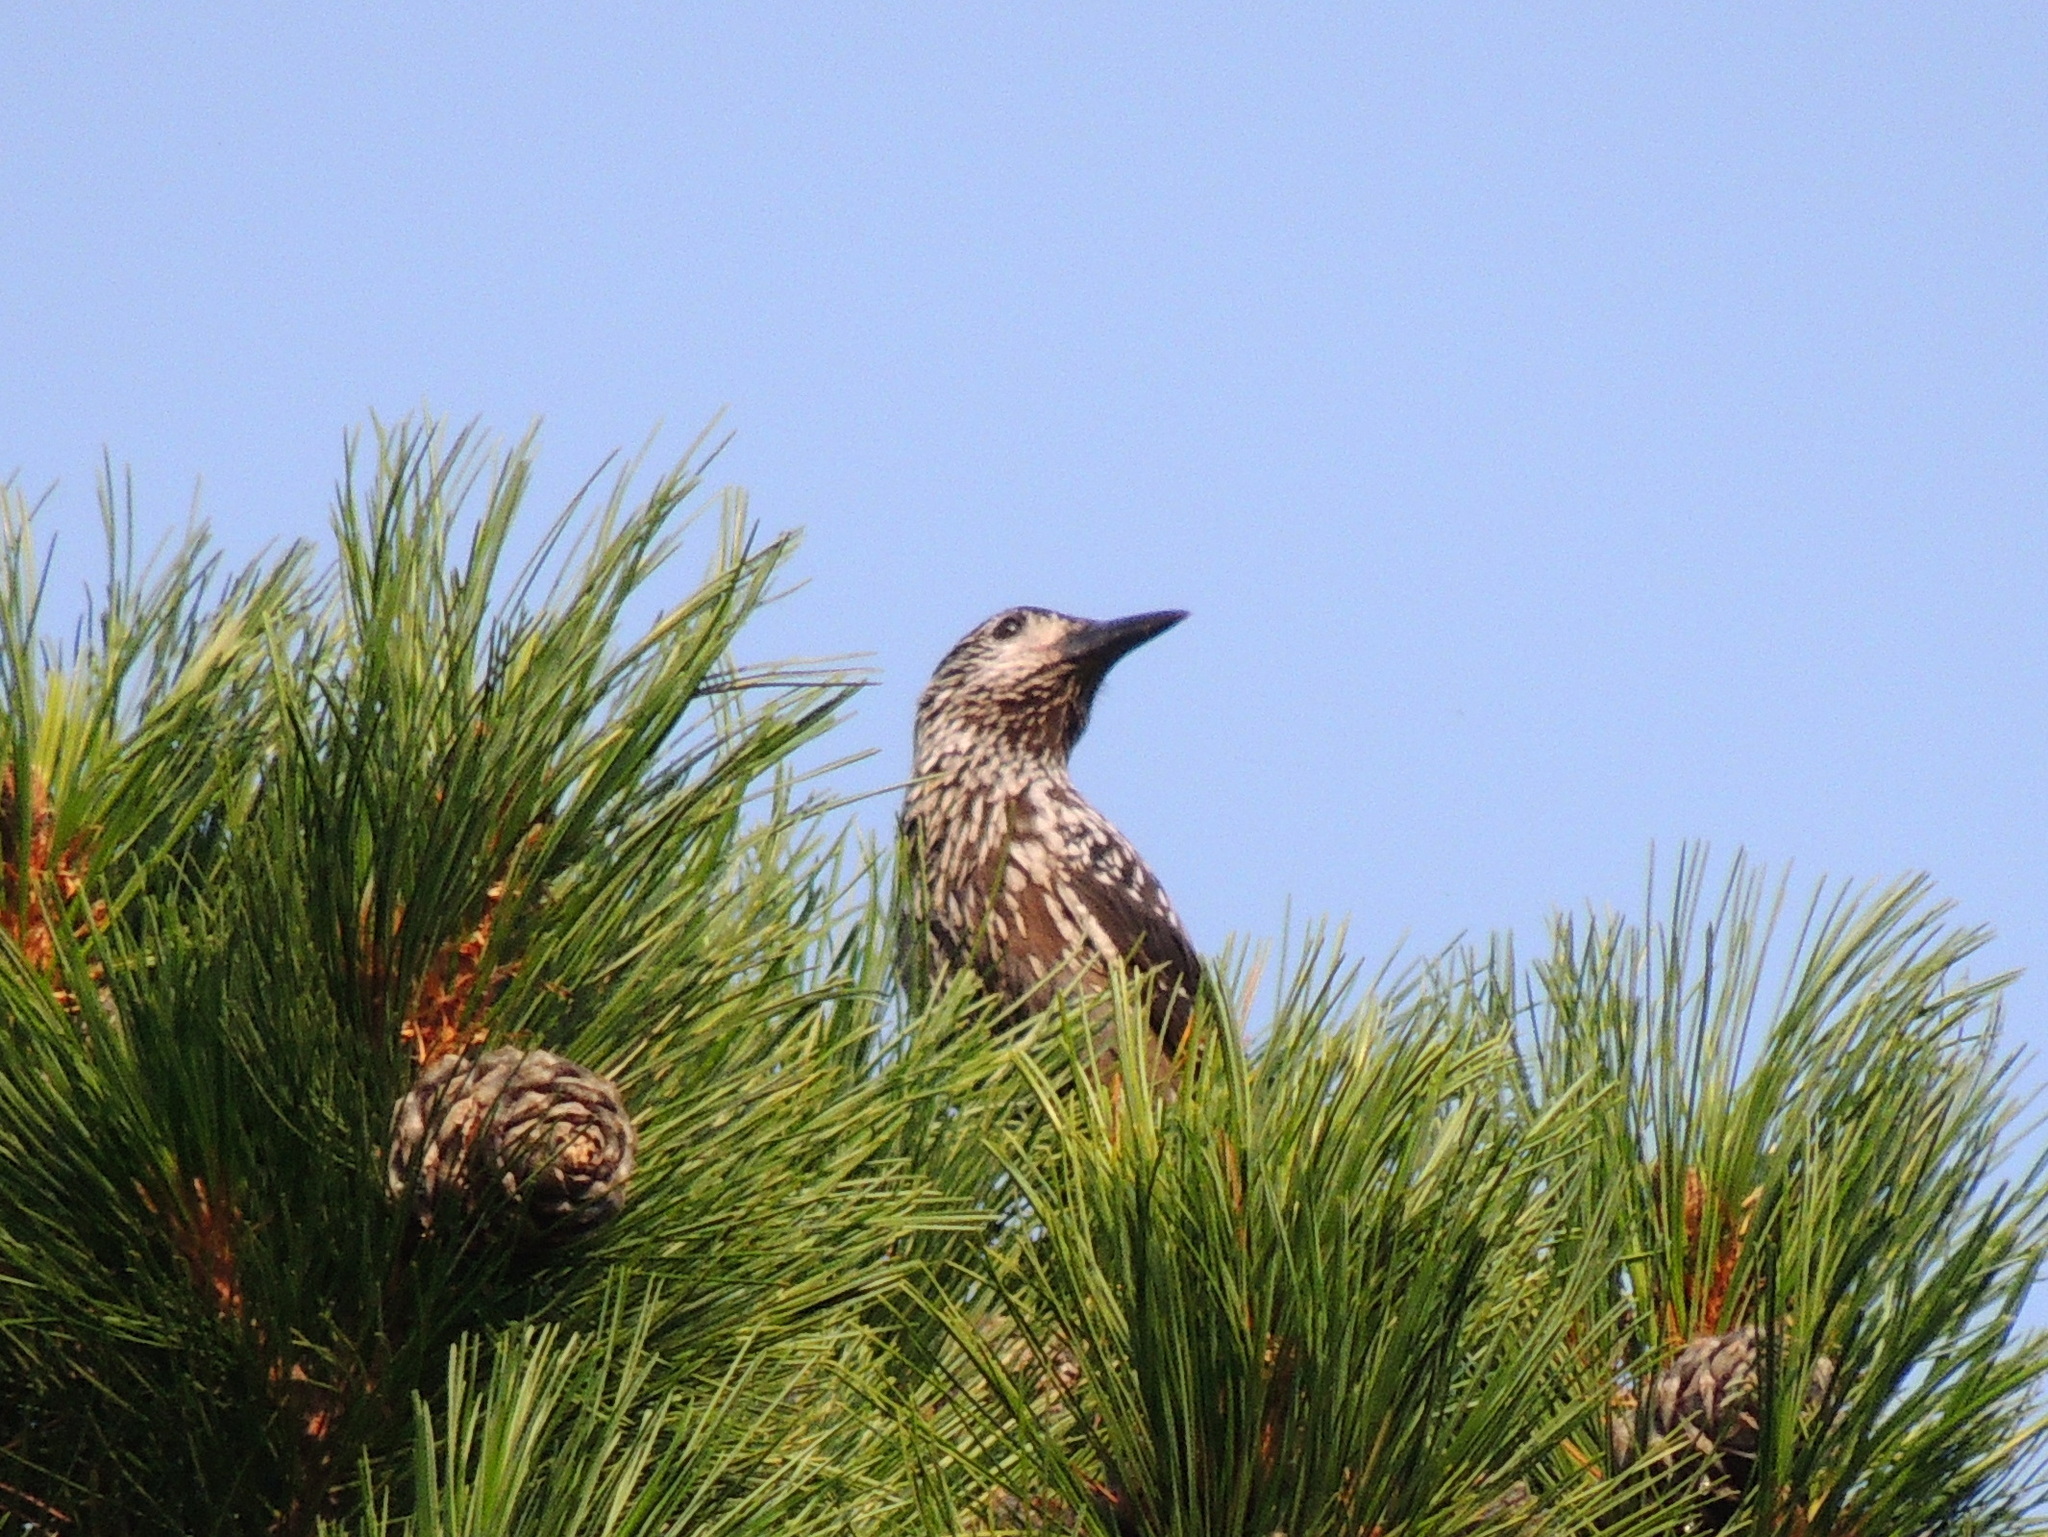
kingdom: Animalia
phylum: Chordata
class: Aves
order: Passeriformes
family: Corvidae
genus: Nucifraga
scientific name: Nucifraga caryocatactes
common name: Spotted nutcracker
